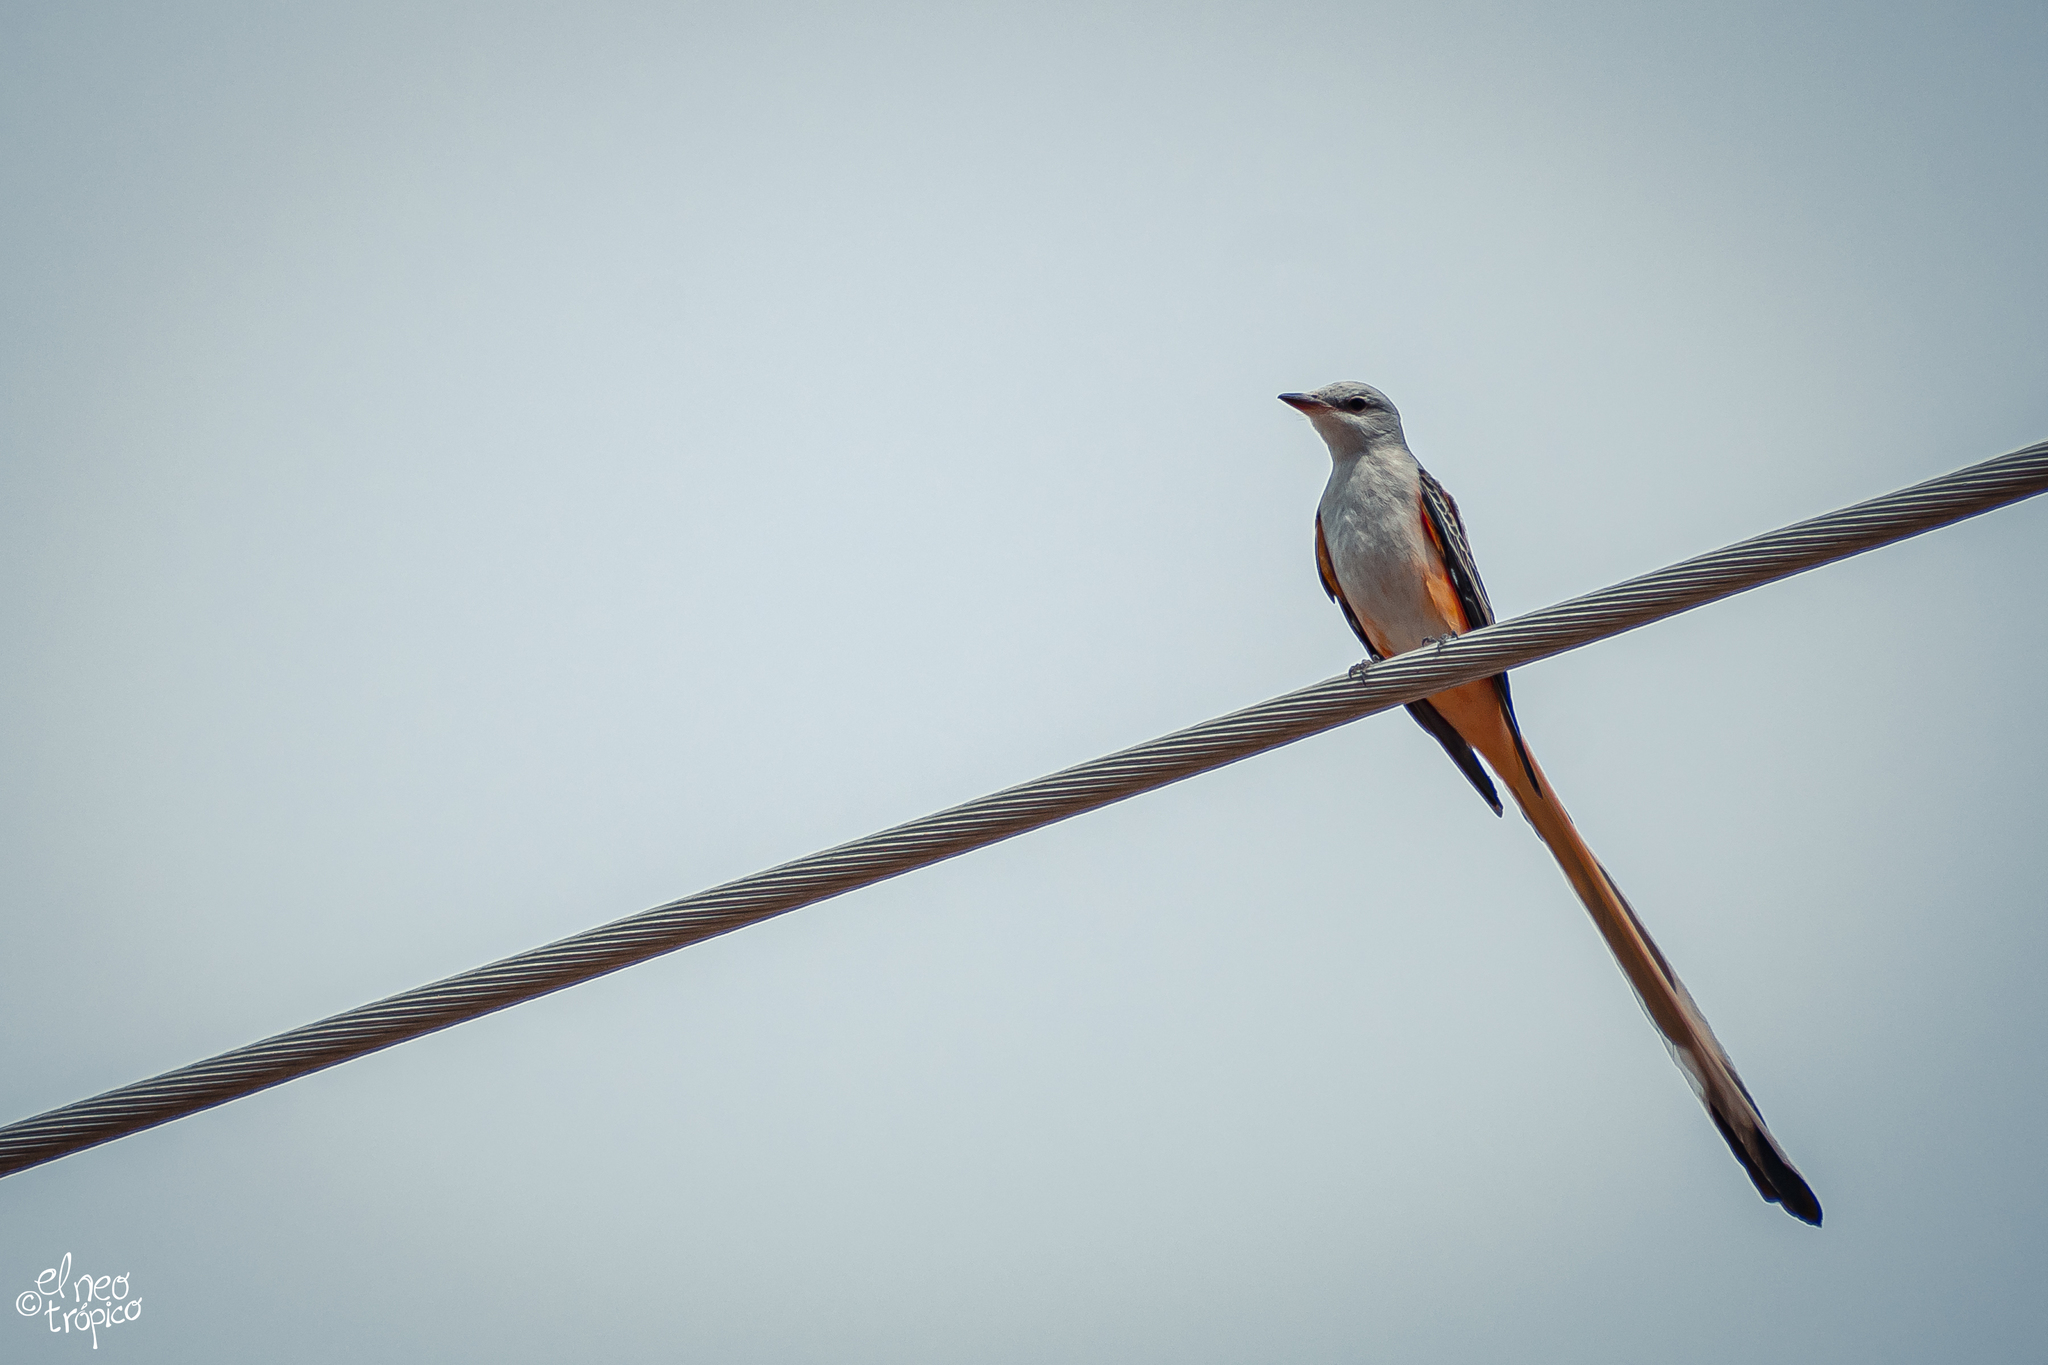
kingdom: Animalia
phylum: Chordata
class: Aves
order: Passeriformes
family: Tyrannidae
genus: Tyrannus
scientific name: Tyrannus forficatus
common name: Scissor-tailed flycatcher
